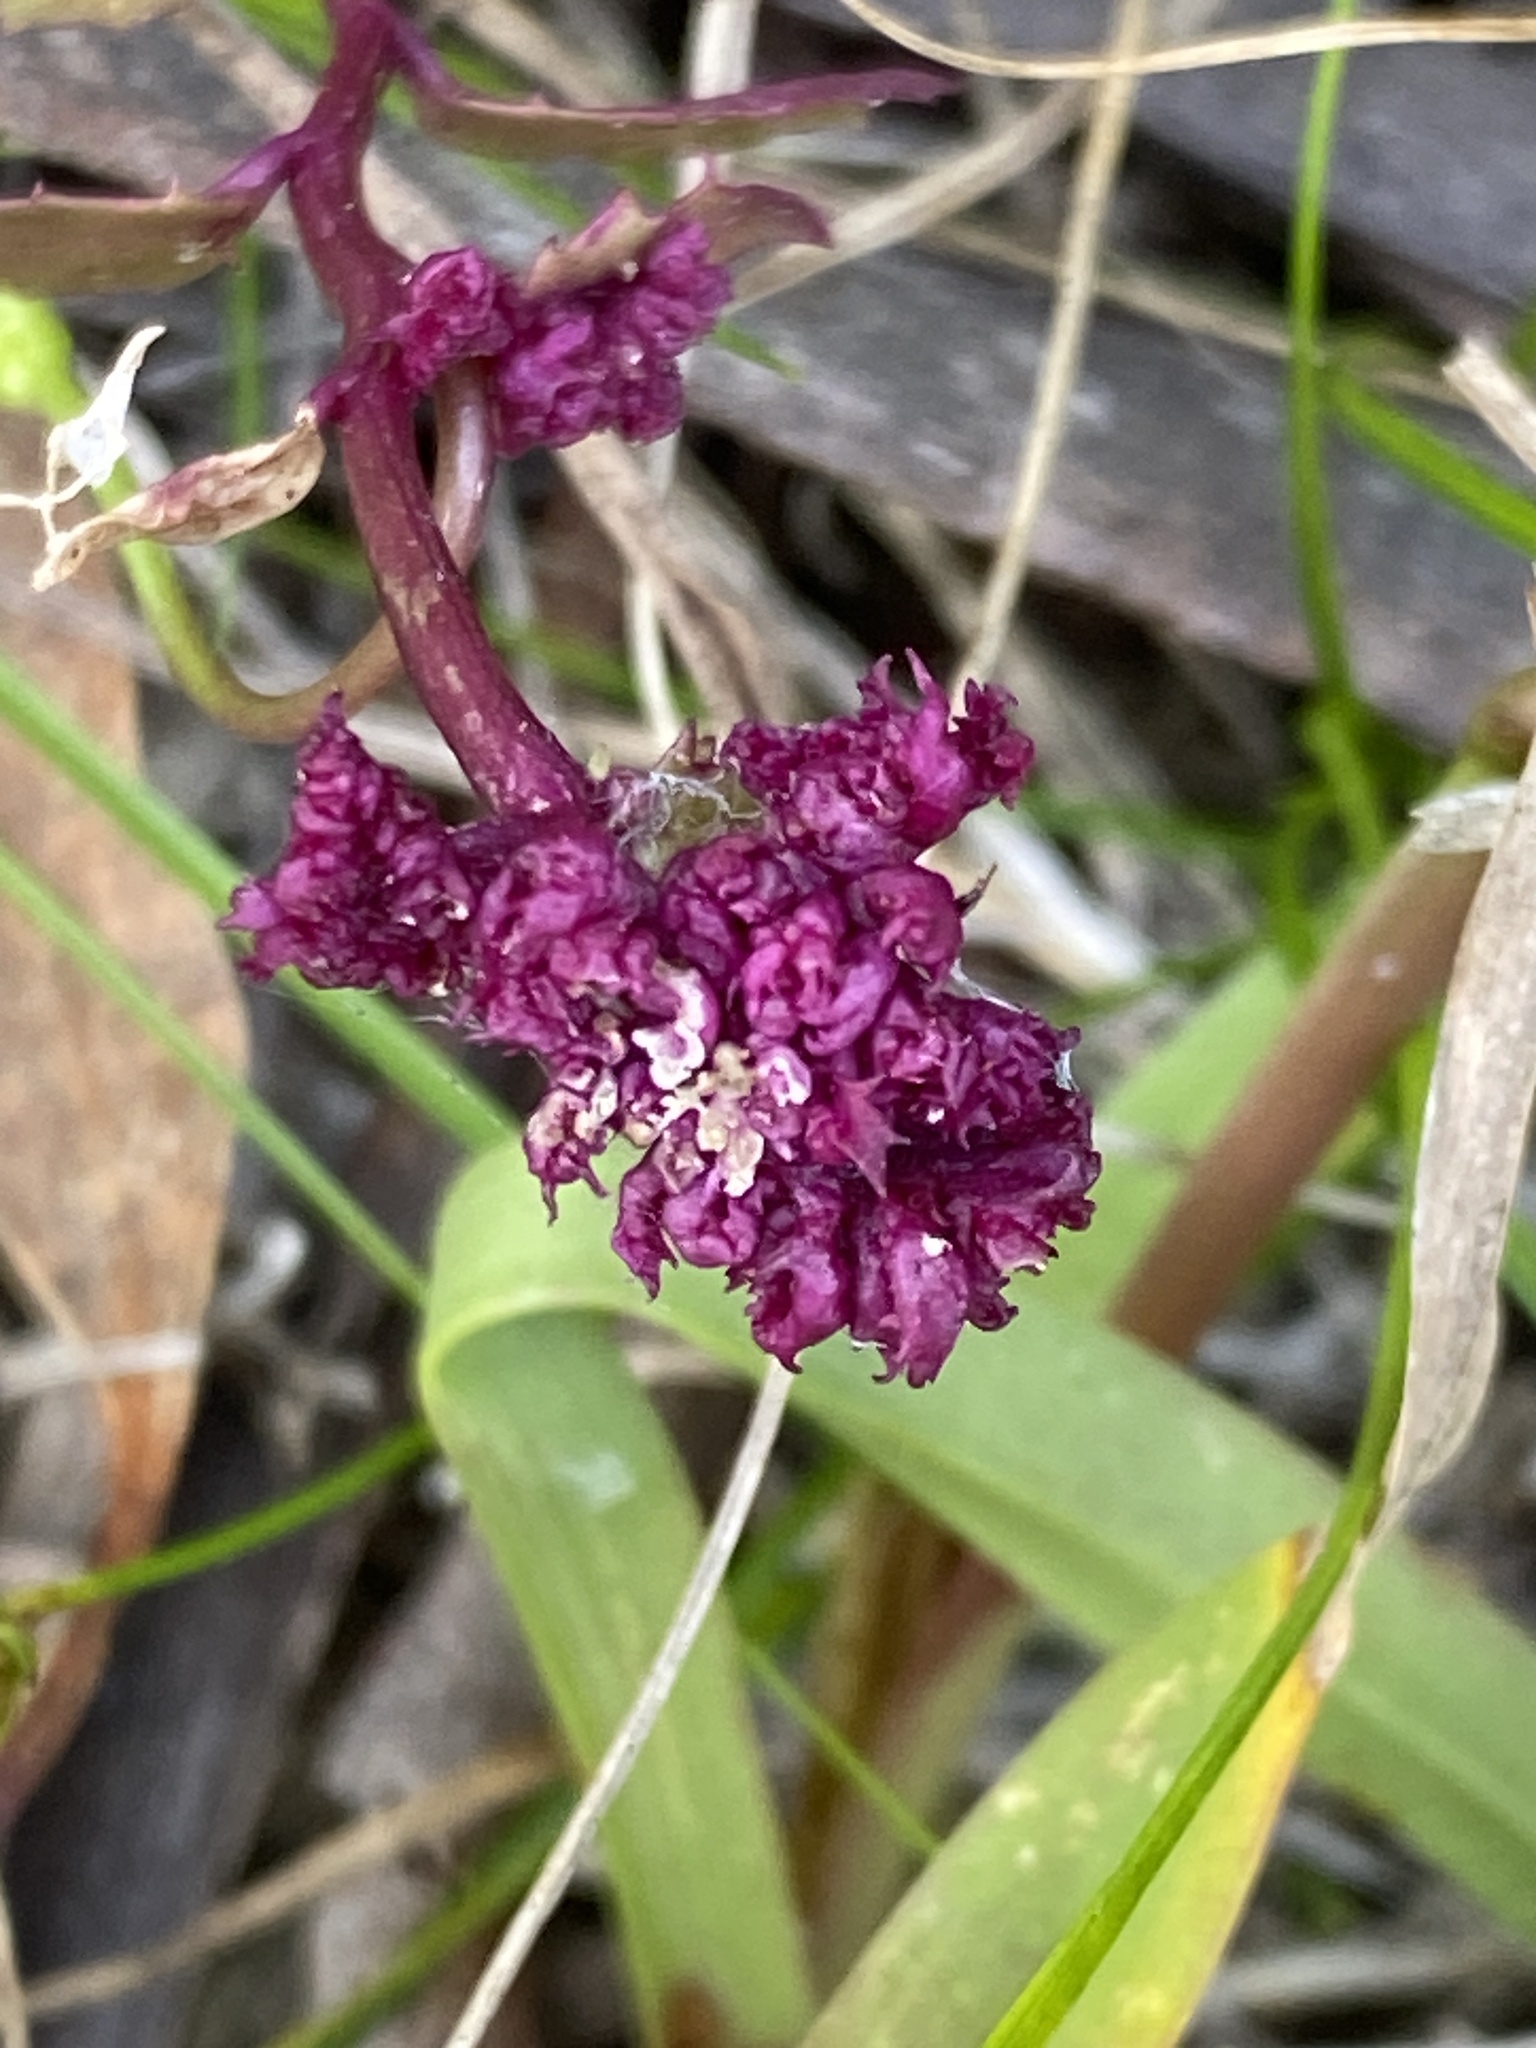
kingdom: Plantae
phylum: Tracheophyta
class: Magnoliopsida
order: Asterales
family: Campanulaceae
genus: Lobelia
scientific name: Lobelia purpurascens
